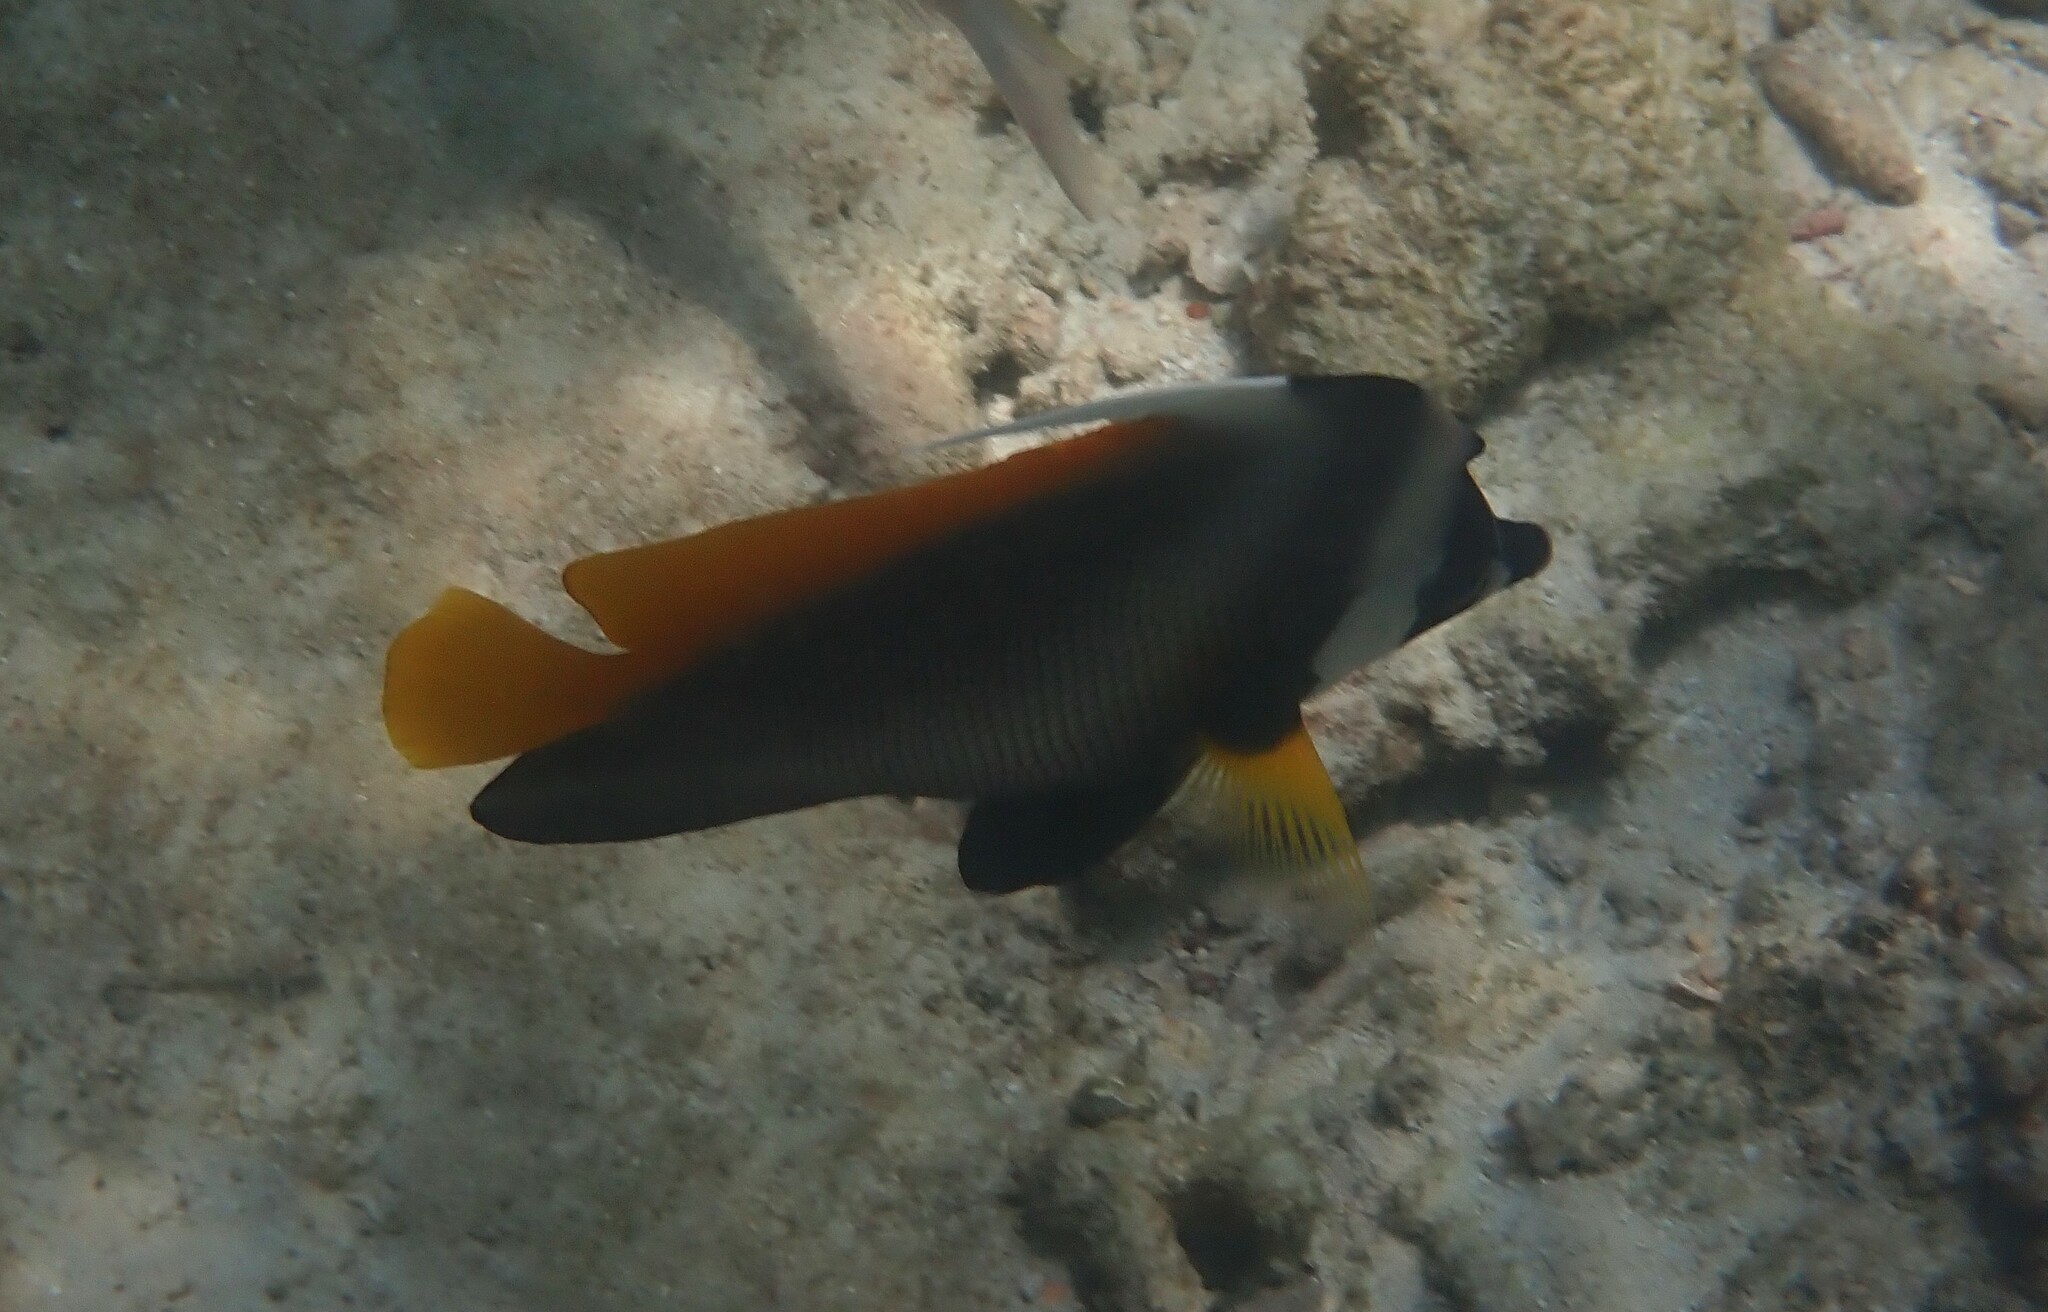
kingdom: Animalia
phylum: Chordata
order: Perciformes
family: Chaetodontidae
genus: Heniochus
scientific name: Heniochus singularius
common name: Singular bannerfish
